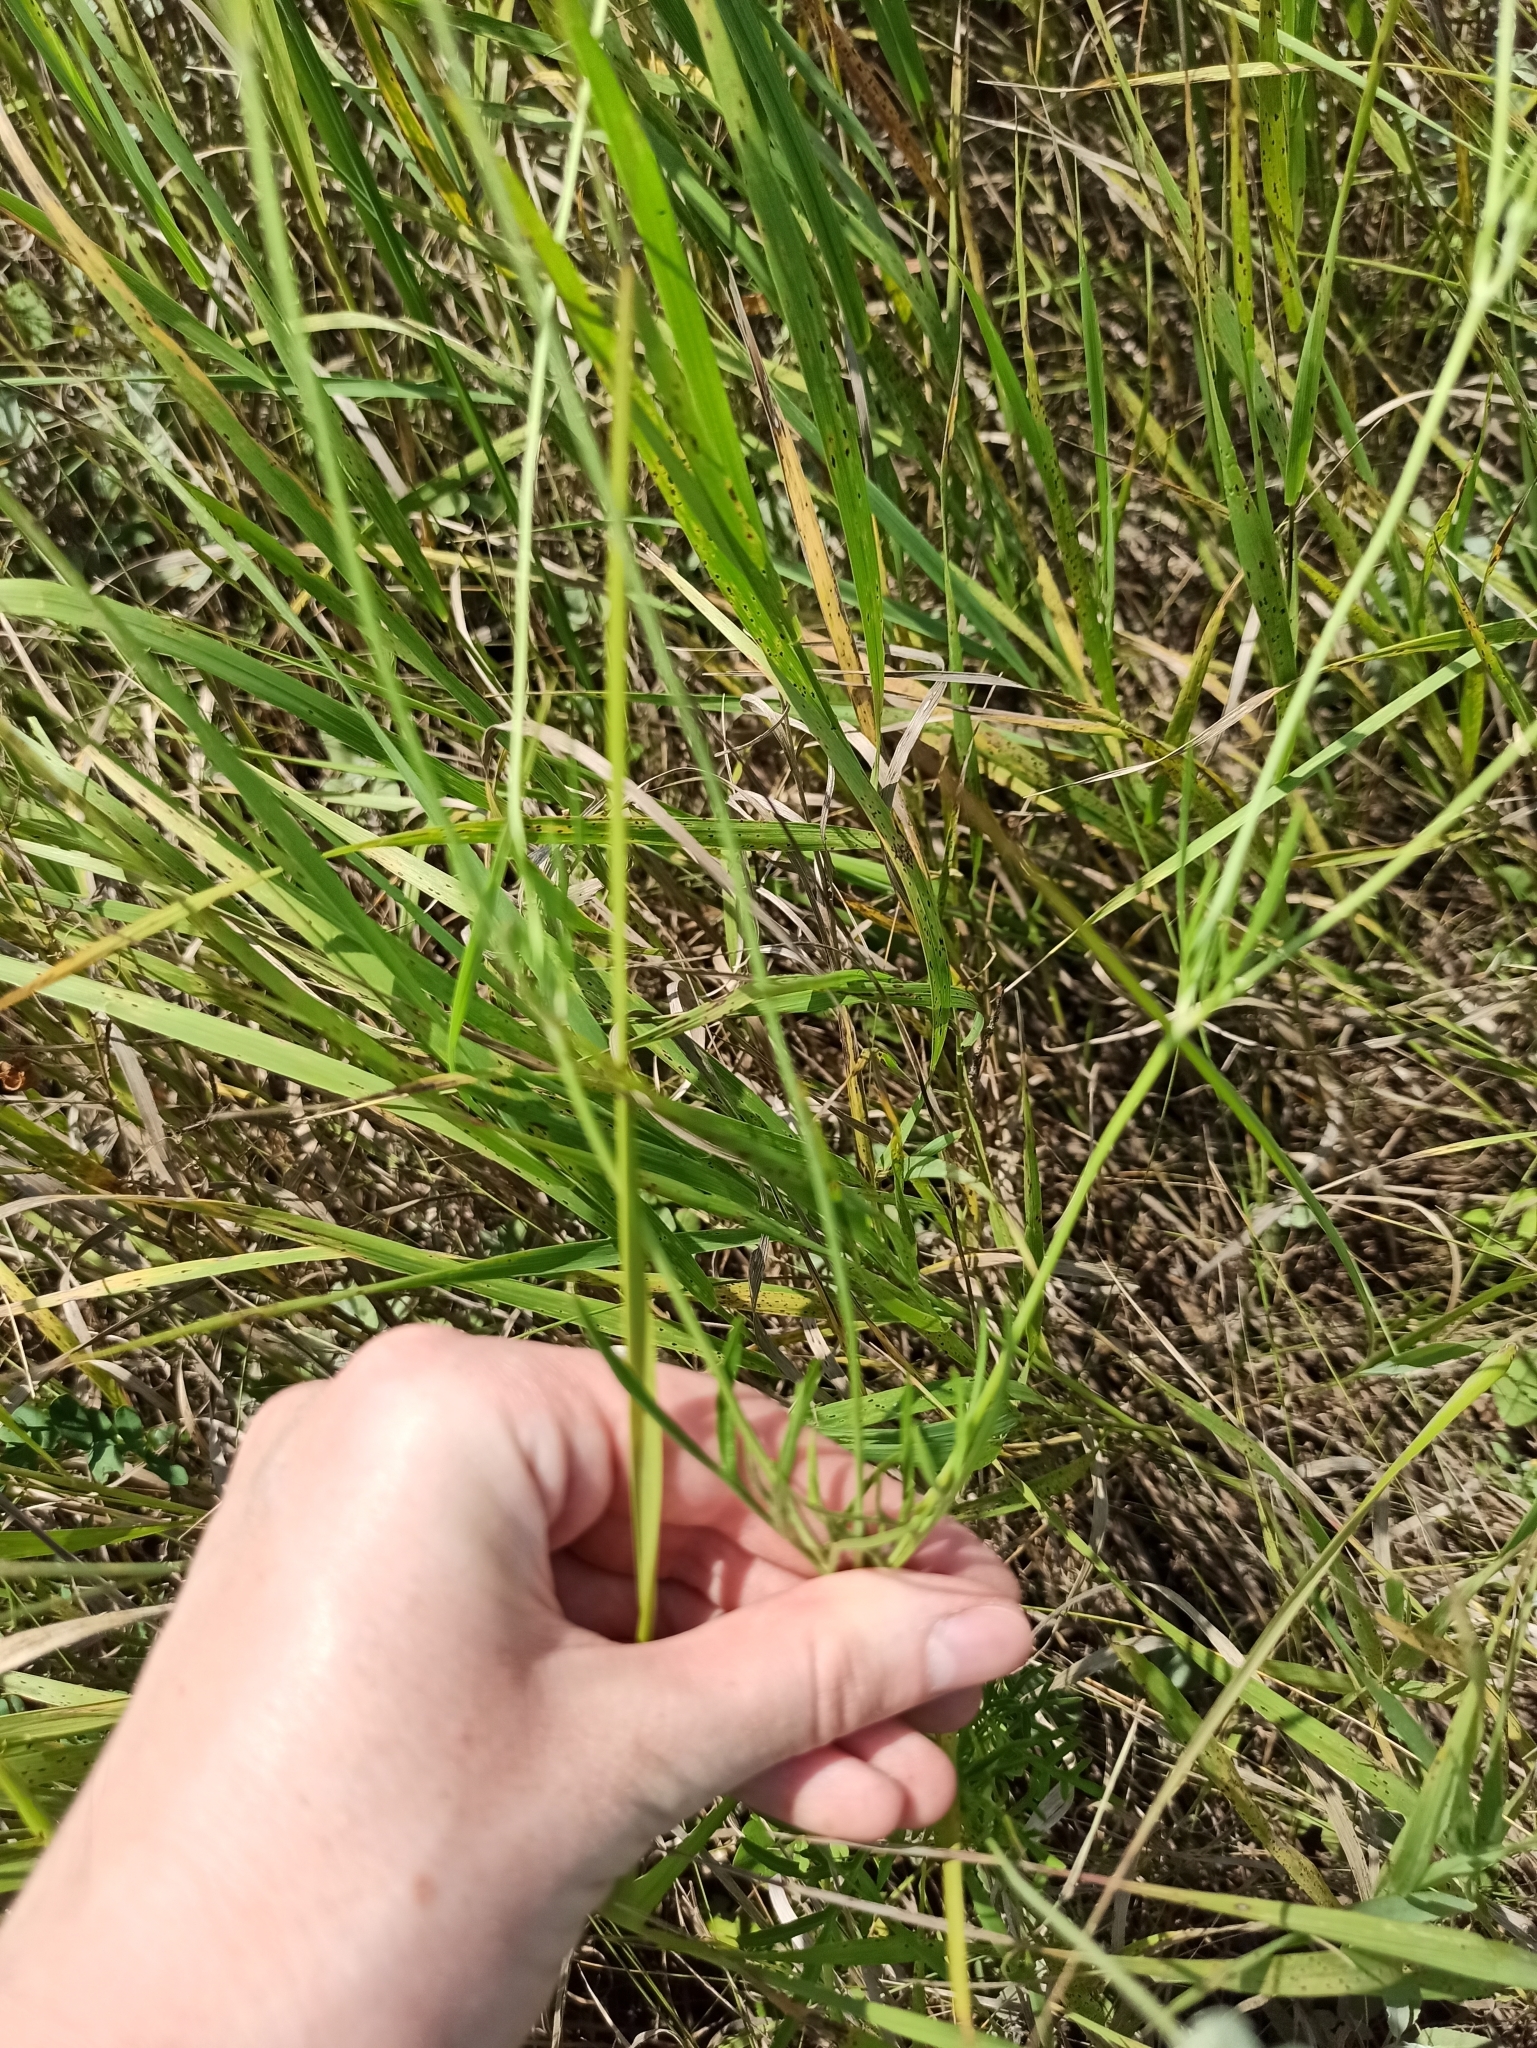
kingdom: Plantae
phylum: Tracheophyta
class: Magnoliopsida
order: Dipsacales
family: Caprifoliaceae
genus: Scabiosa
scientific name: Scabiosa ochroleuca
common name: Cream pincushions
